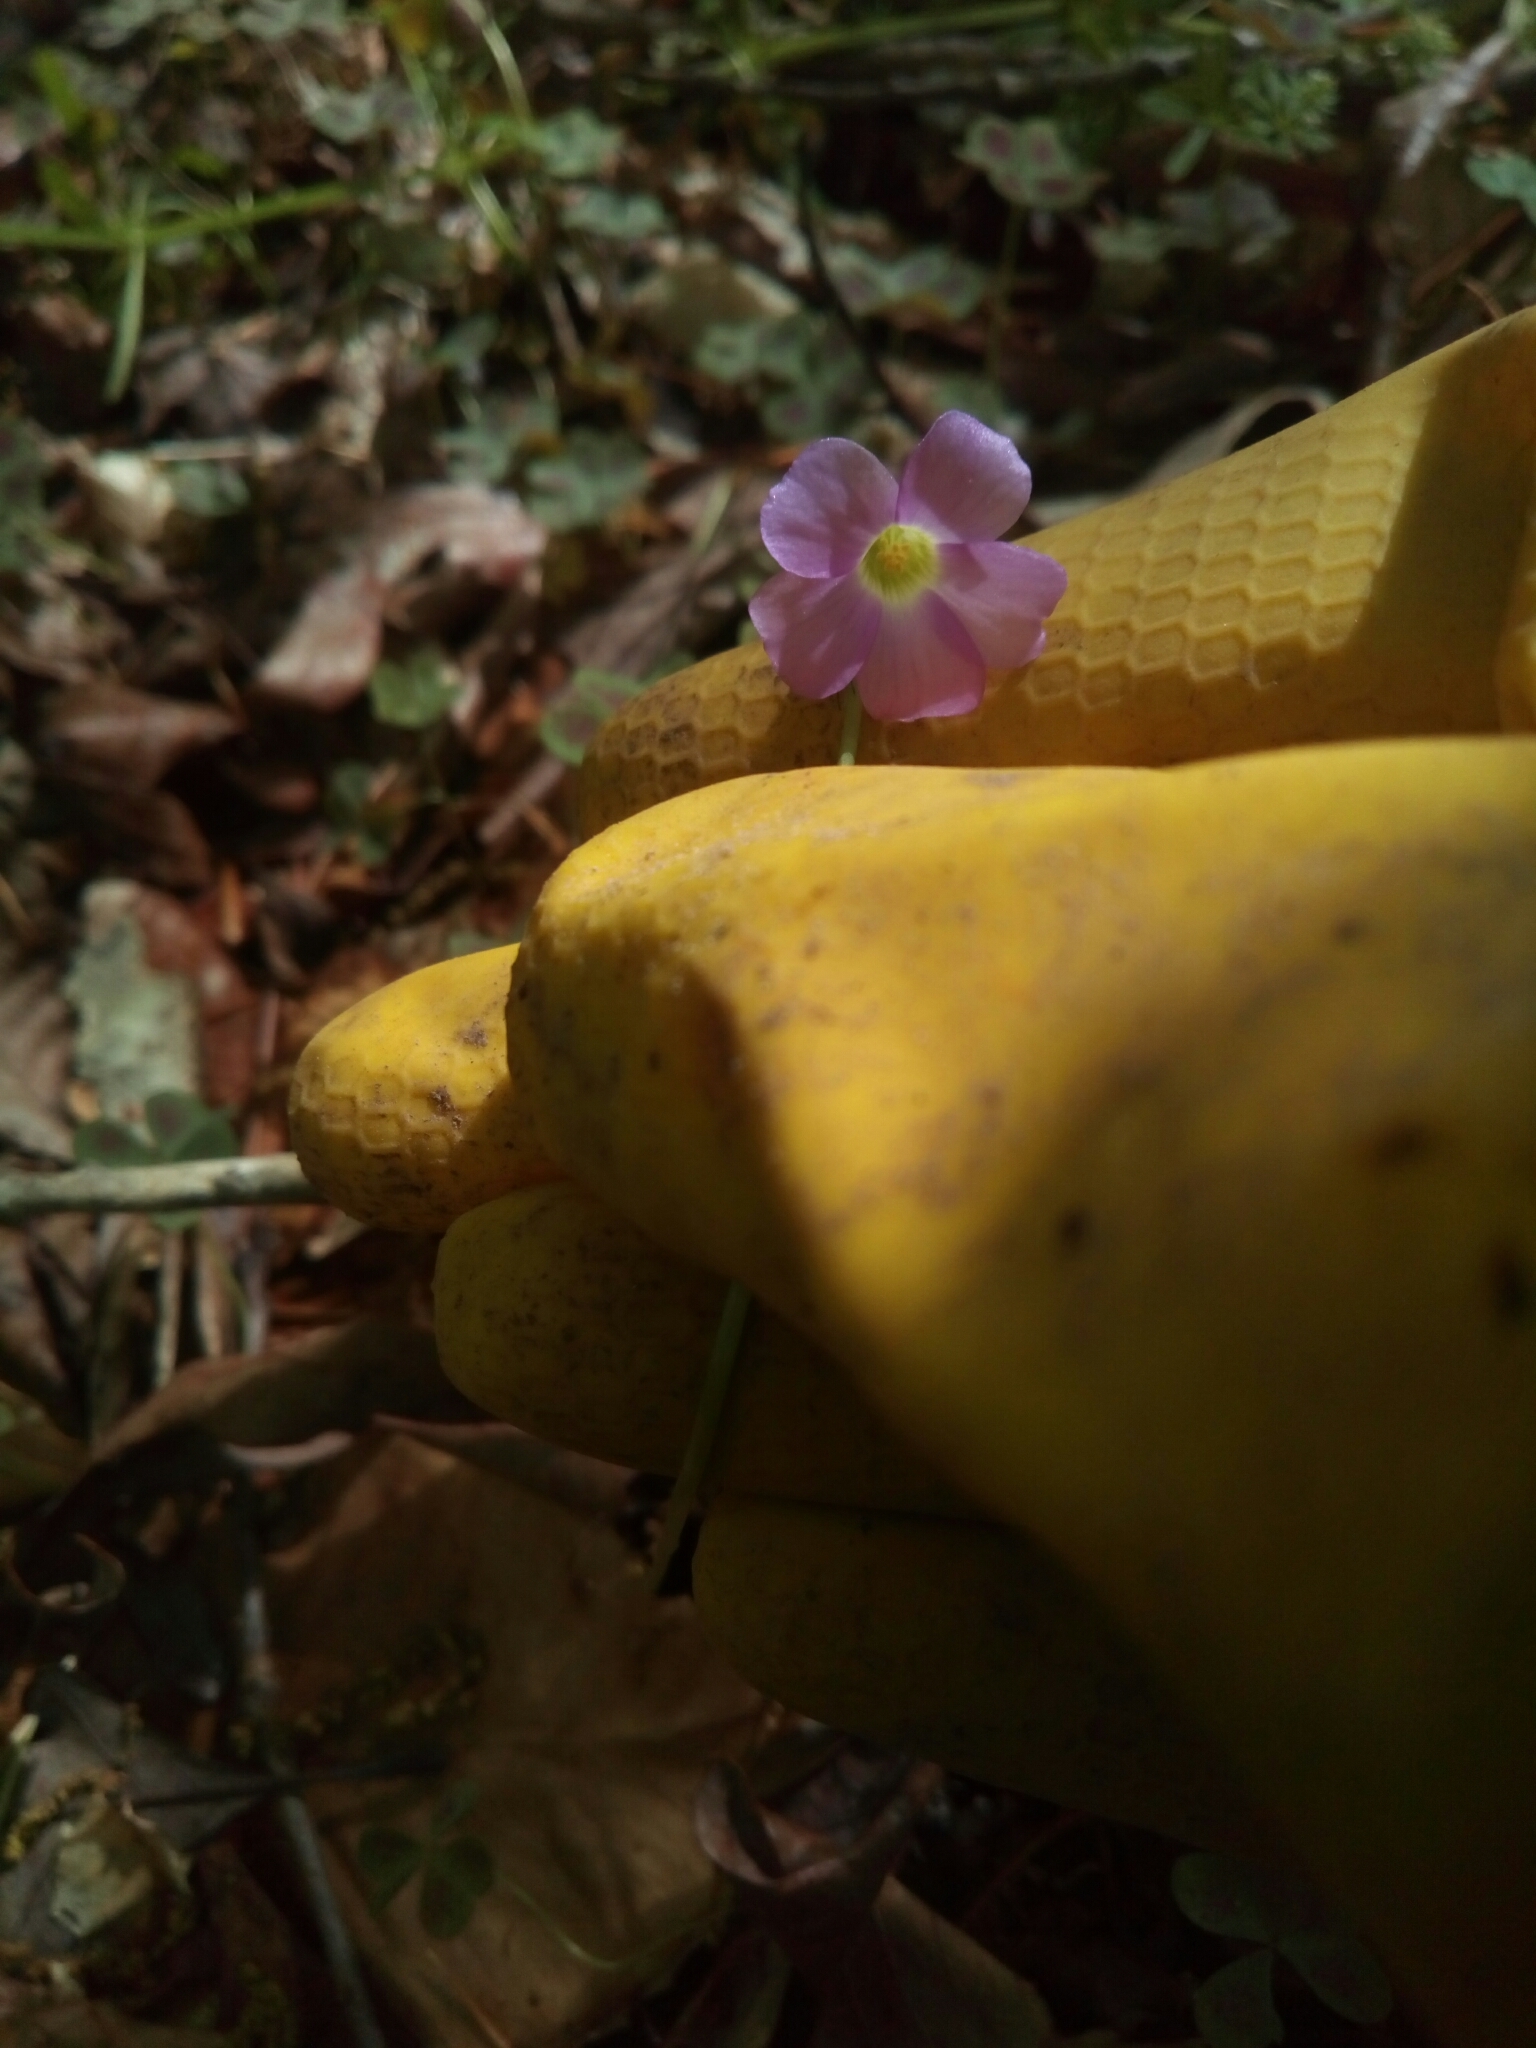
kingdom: Plantae
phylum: Tracheophyta
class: Magnoliopsida
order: Oxalidales
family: Oxalidaceae
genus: Oxalis
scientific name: Oxalis violacea
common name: Violet wood-sorrel
